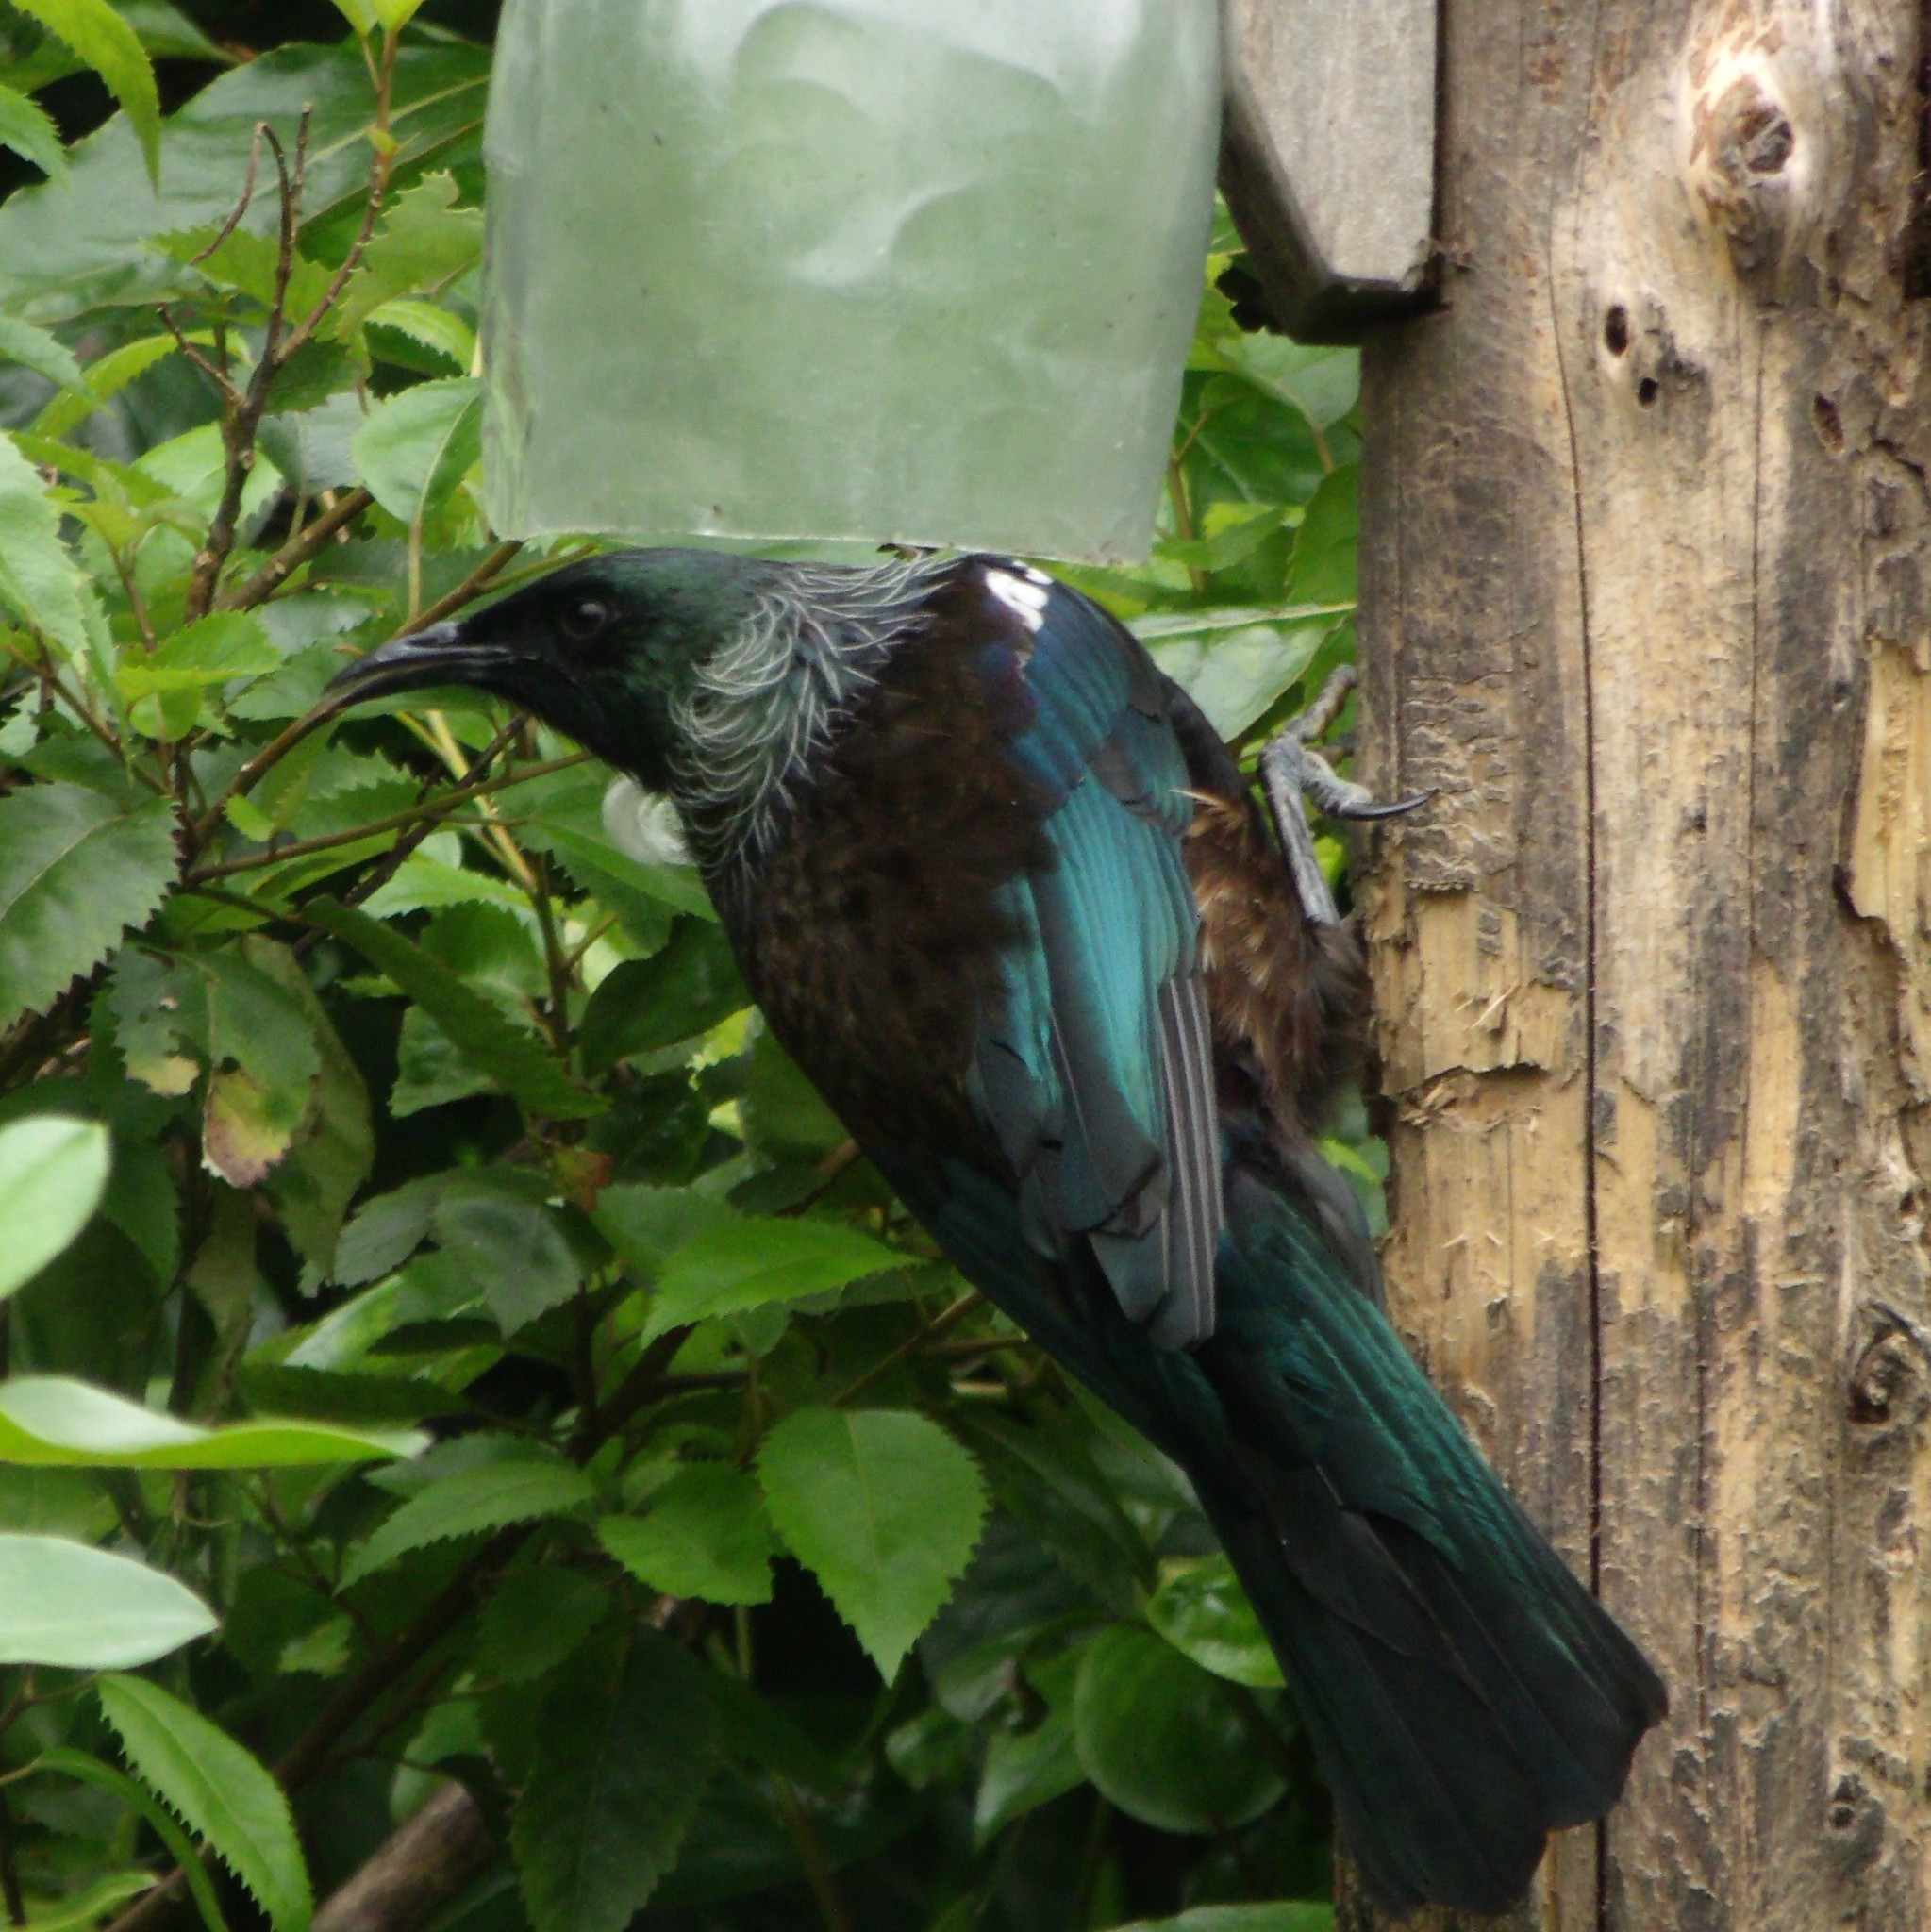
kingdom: Animalia
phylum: Chordata
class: Aves
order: Passeriformes
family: Meliphagidae
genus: Prosthemadera
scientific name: Prosthemadera novaeseelandiae
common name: Tui
